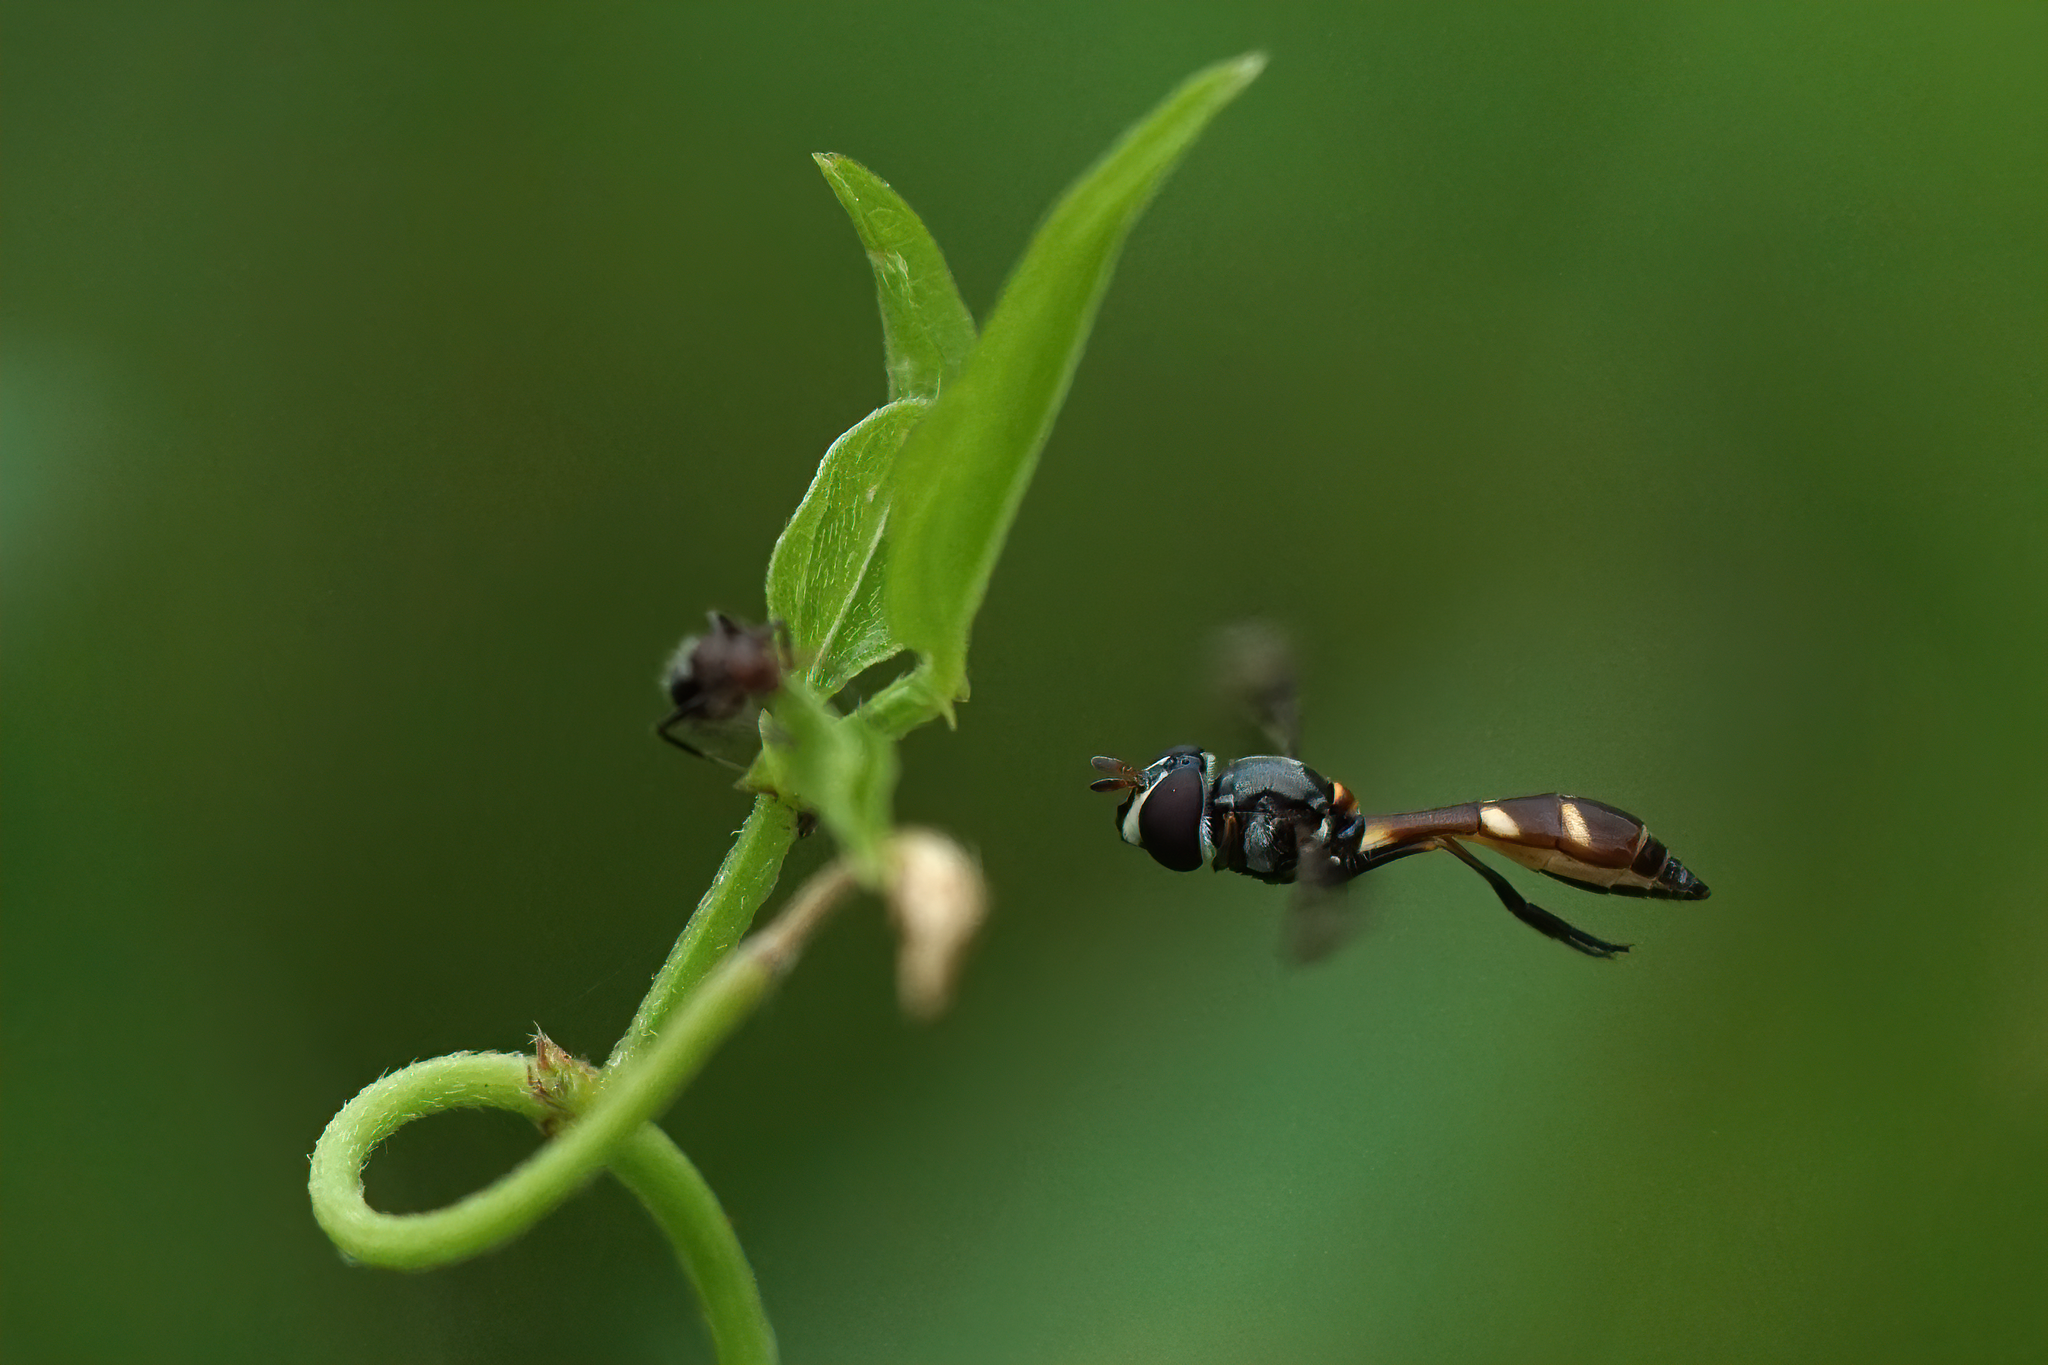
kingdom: Animalia
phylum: Arthropoda
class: Insecta
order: Diptera
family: Syrphidae
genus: Dioprosopa
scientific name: Dioprosopa clavatus
